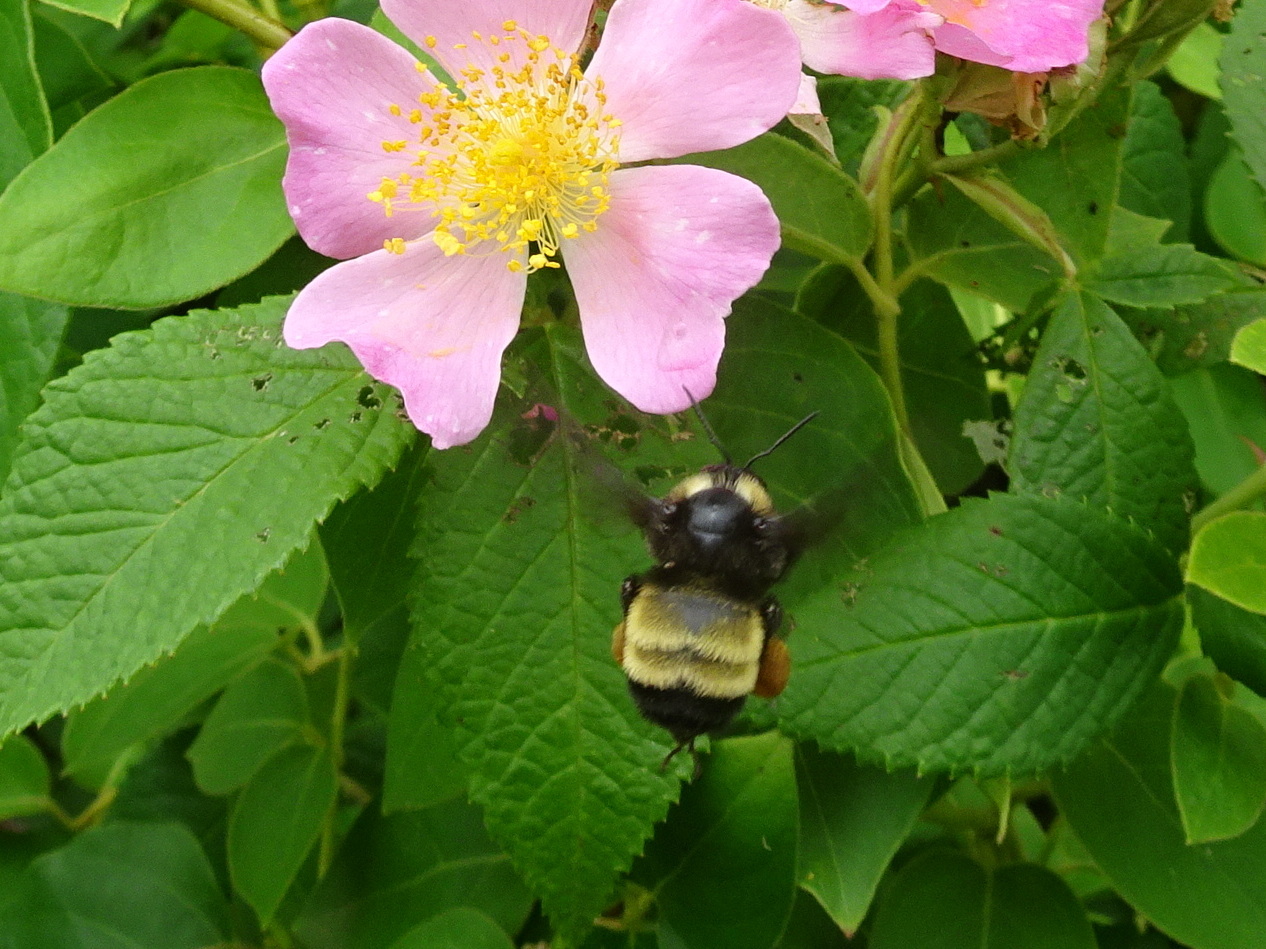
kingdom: Animalia
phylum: Arthropoda
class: Insecta
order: Hymenoptera
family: Apidae
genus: Bombus
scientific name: Bombus pensylvanicus
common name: Bumble bee
